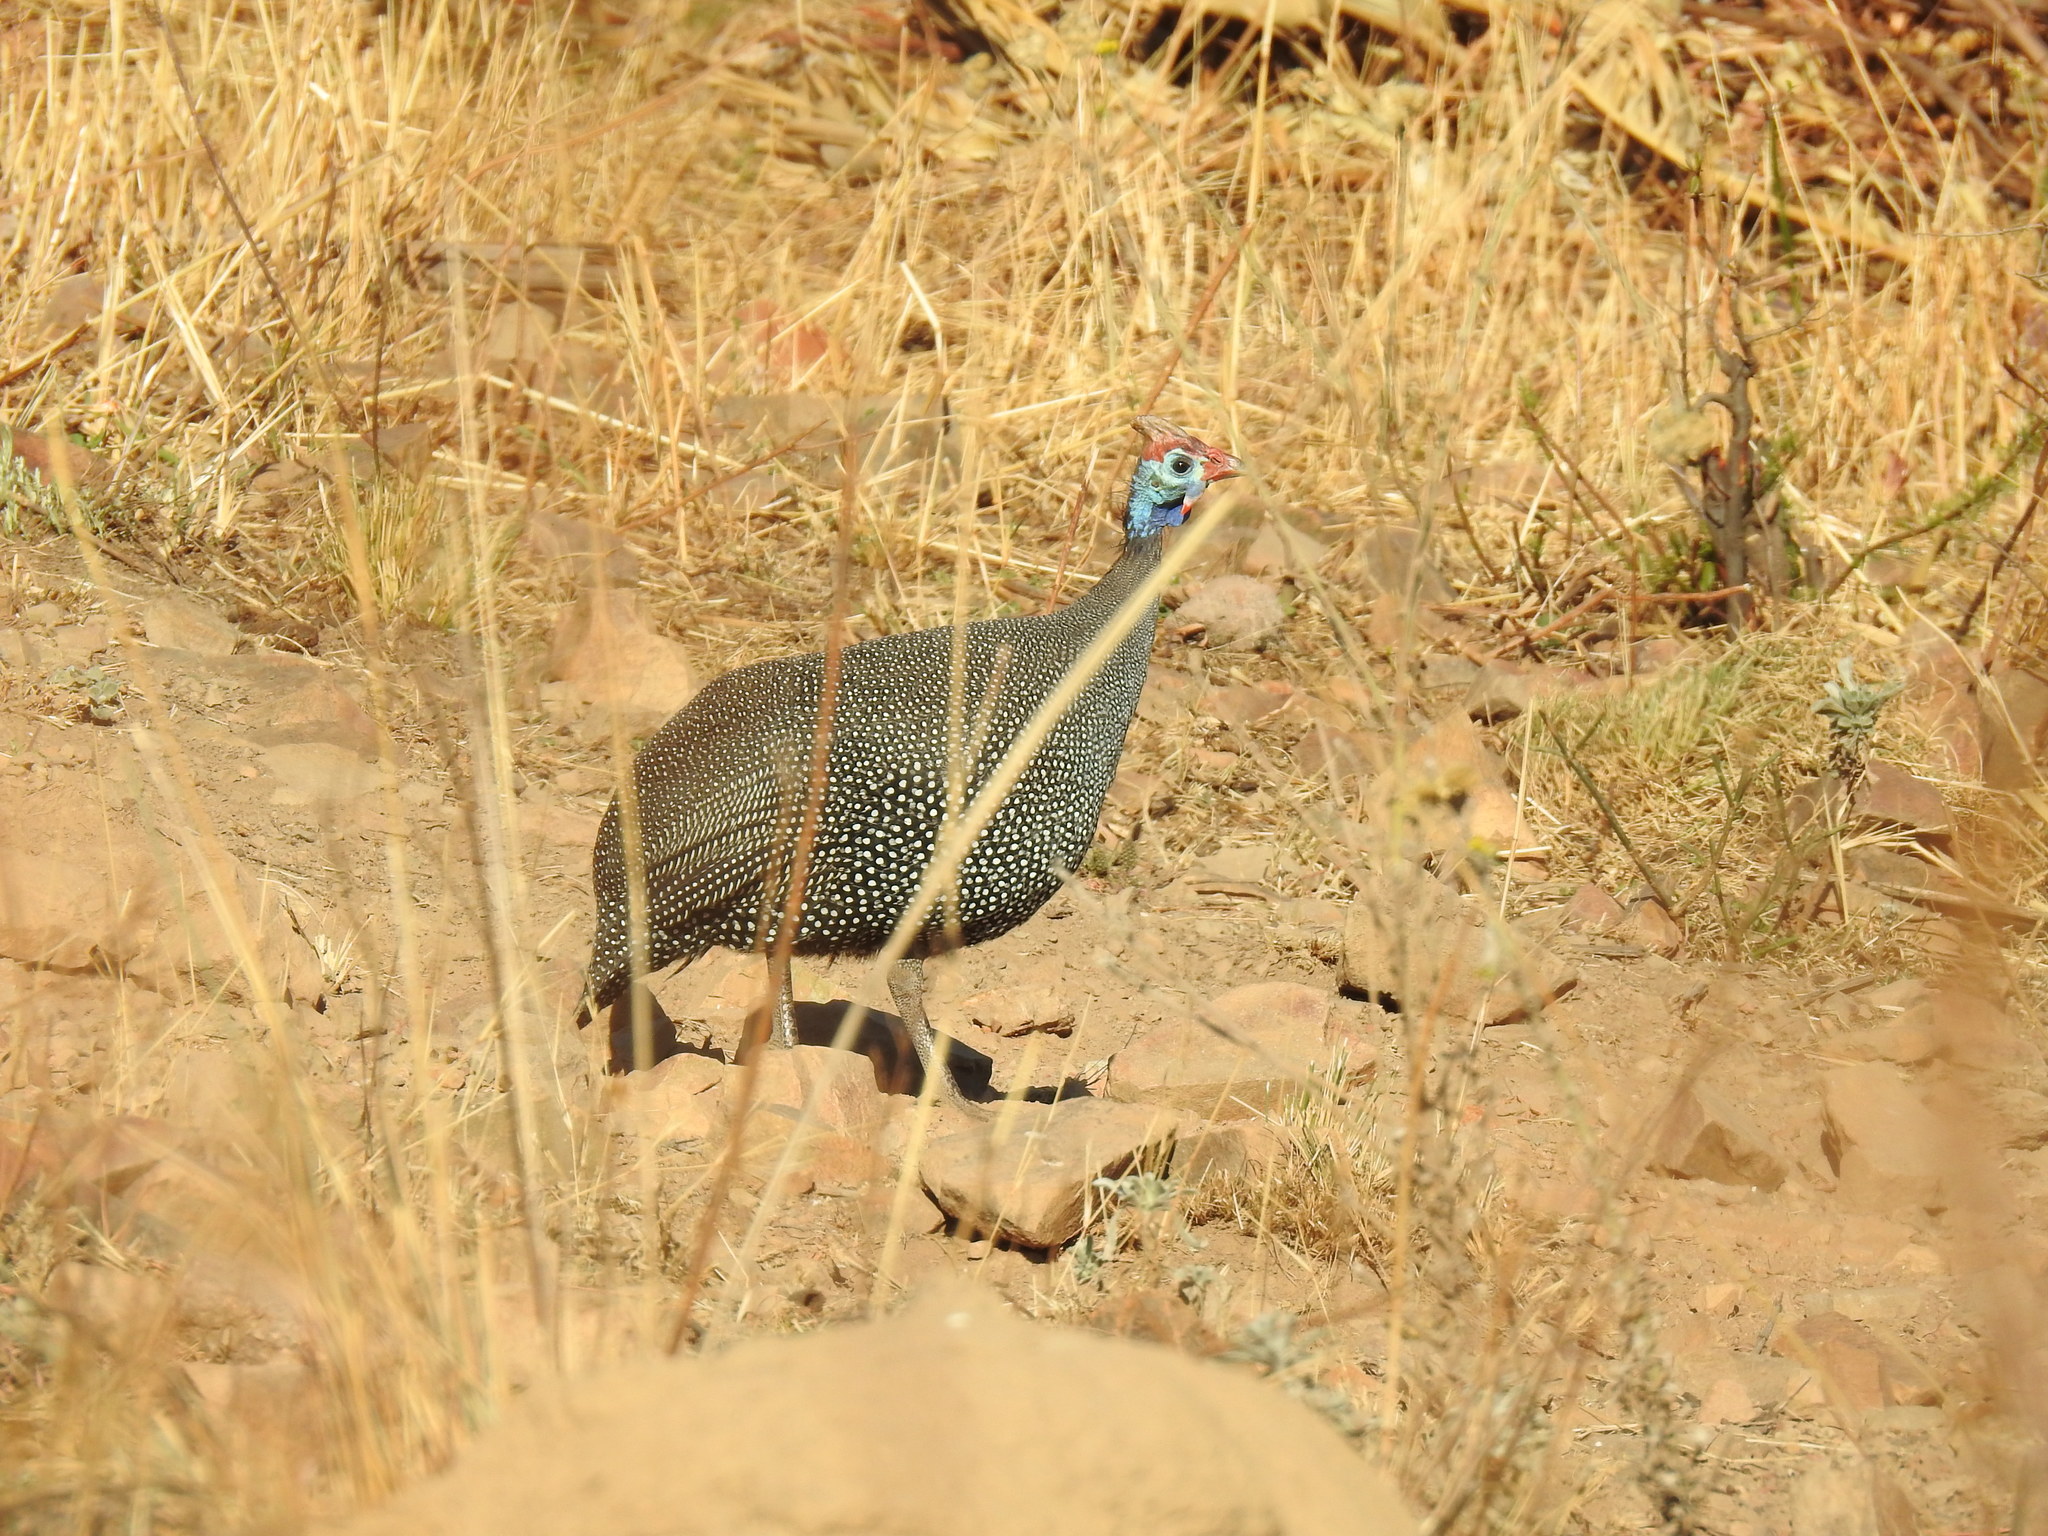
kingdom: Animalia
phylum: Chordata
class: Aves
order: Galliformes
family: Numididae
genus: Numida
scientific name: Numida meleagris
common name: Helmeted guineafowl
